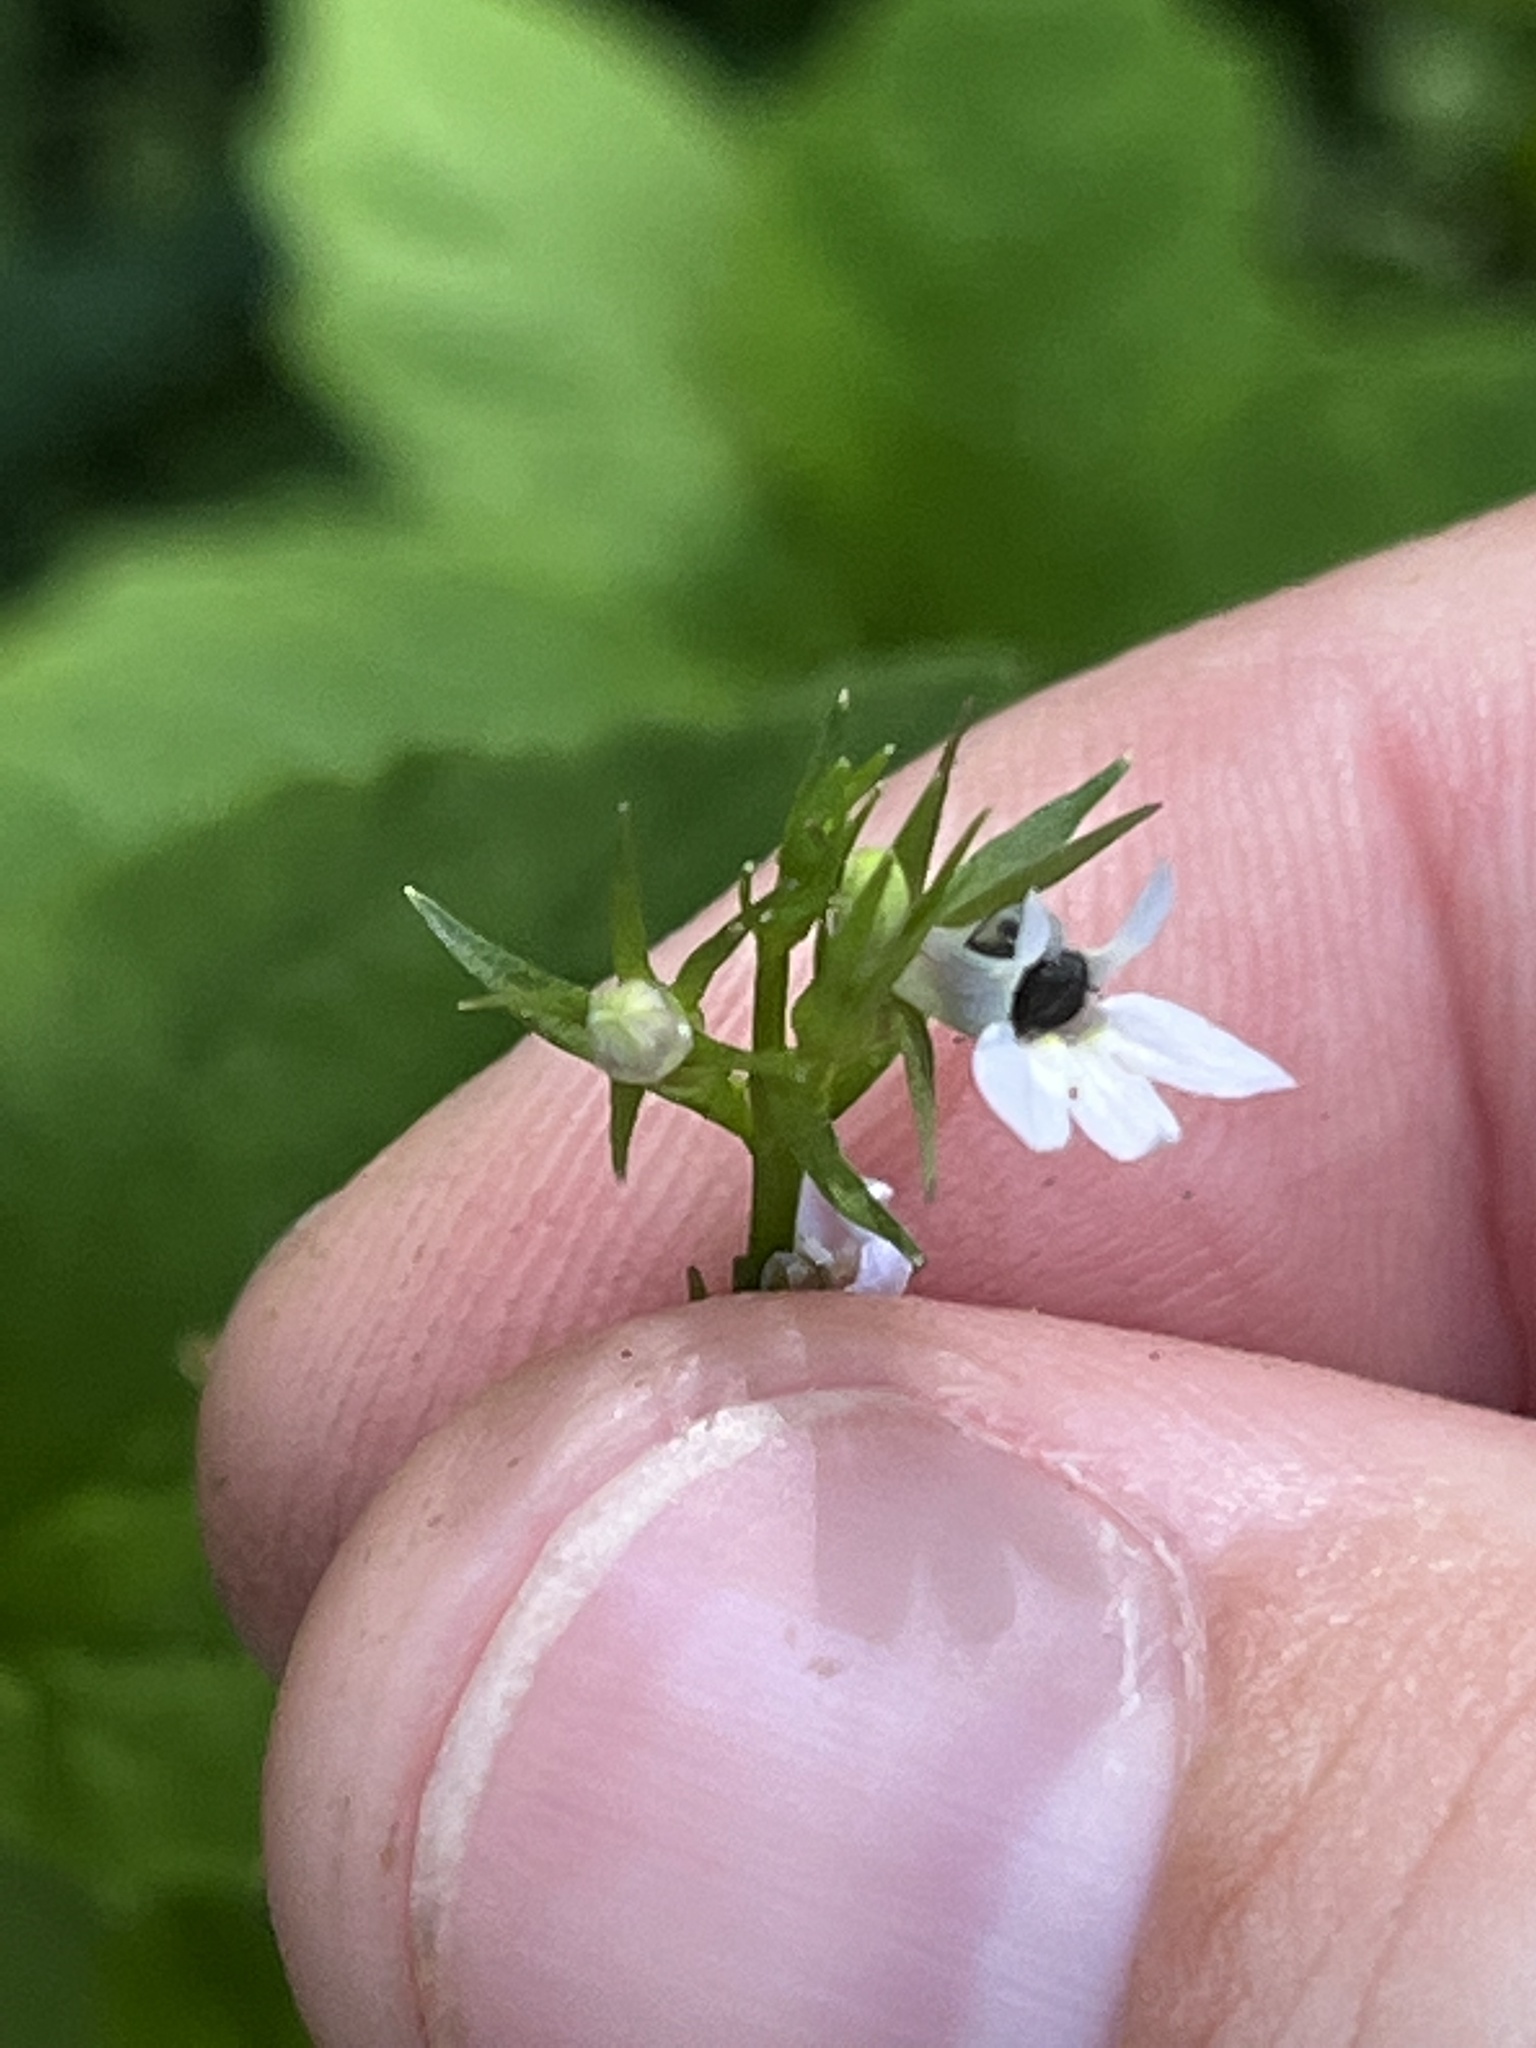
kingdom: Plantae
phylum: Tracheophyta
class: Magnoliopsida
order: Asterales
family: Campanulaceae
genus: Lobelia
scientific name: Lobelia inflata
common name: Indian tobacco
